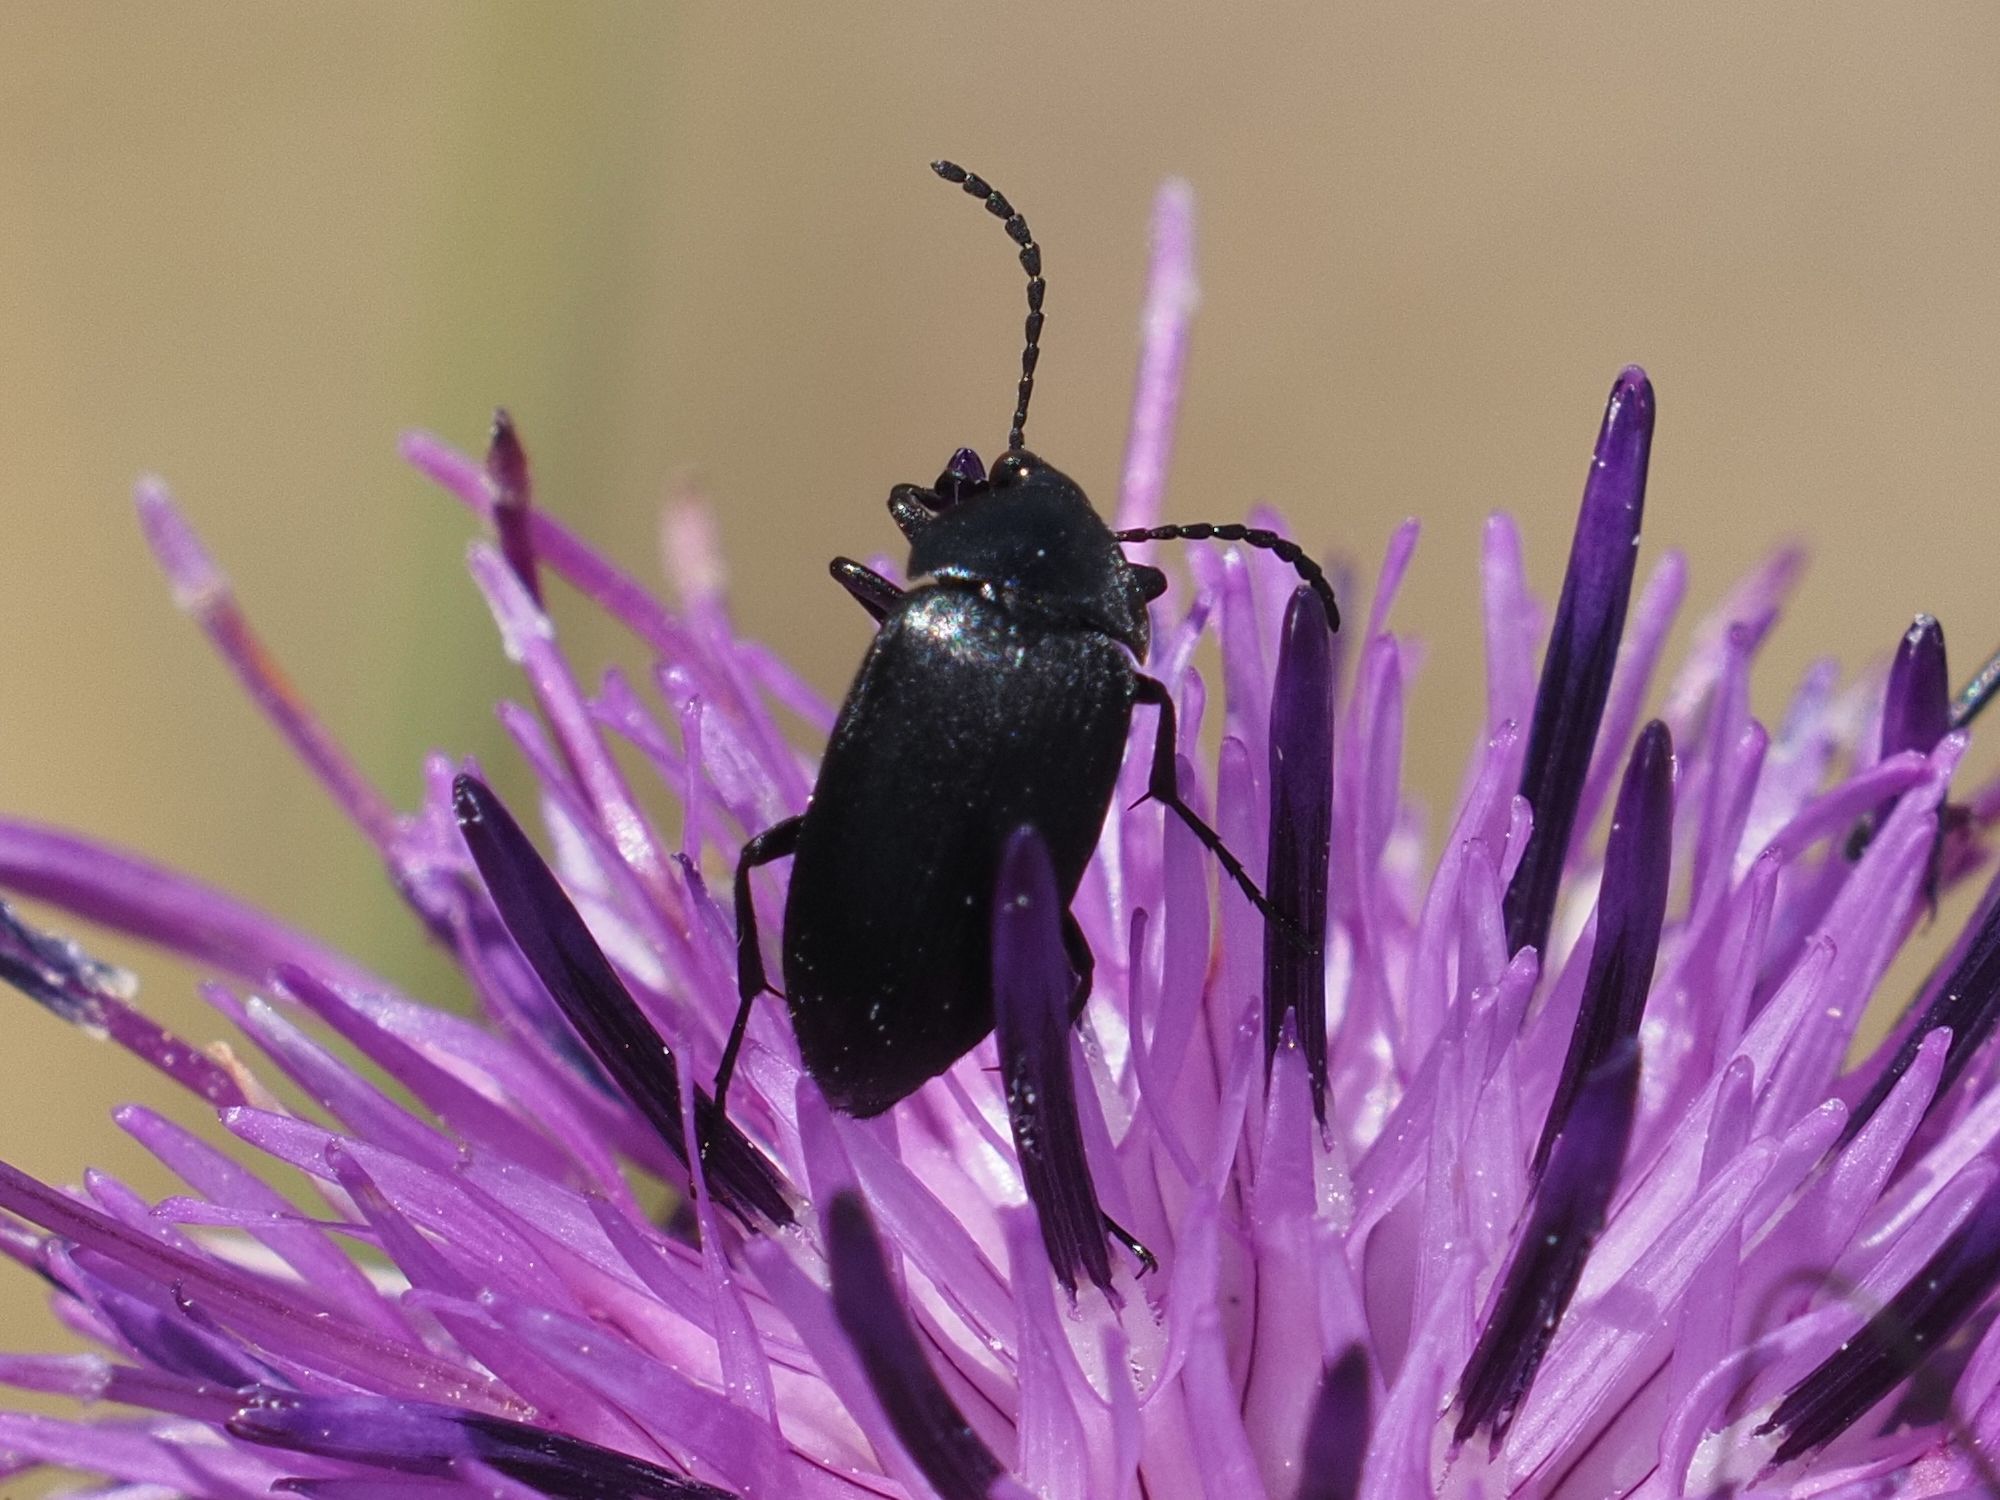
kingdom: Animalia
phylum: Arthropoda
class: Insecta
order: Coleoptera
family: Tenebrionidae
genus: Podonta
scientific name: Podonta nigrita
